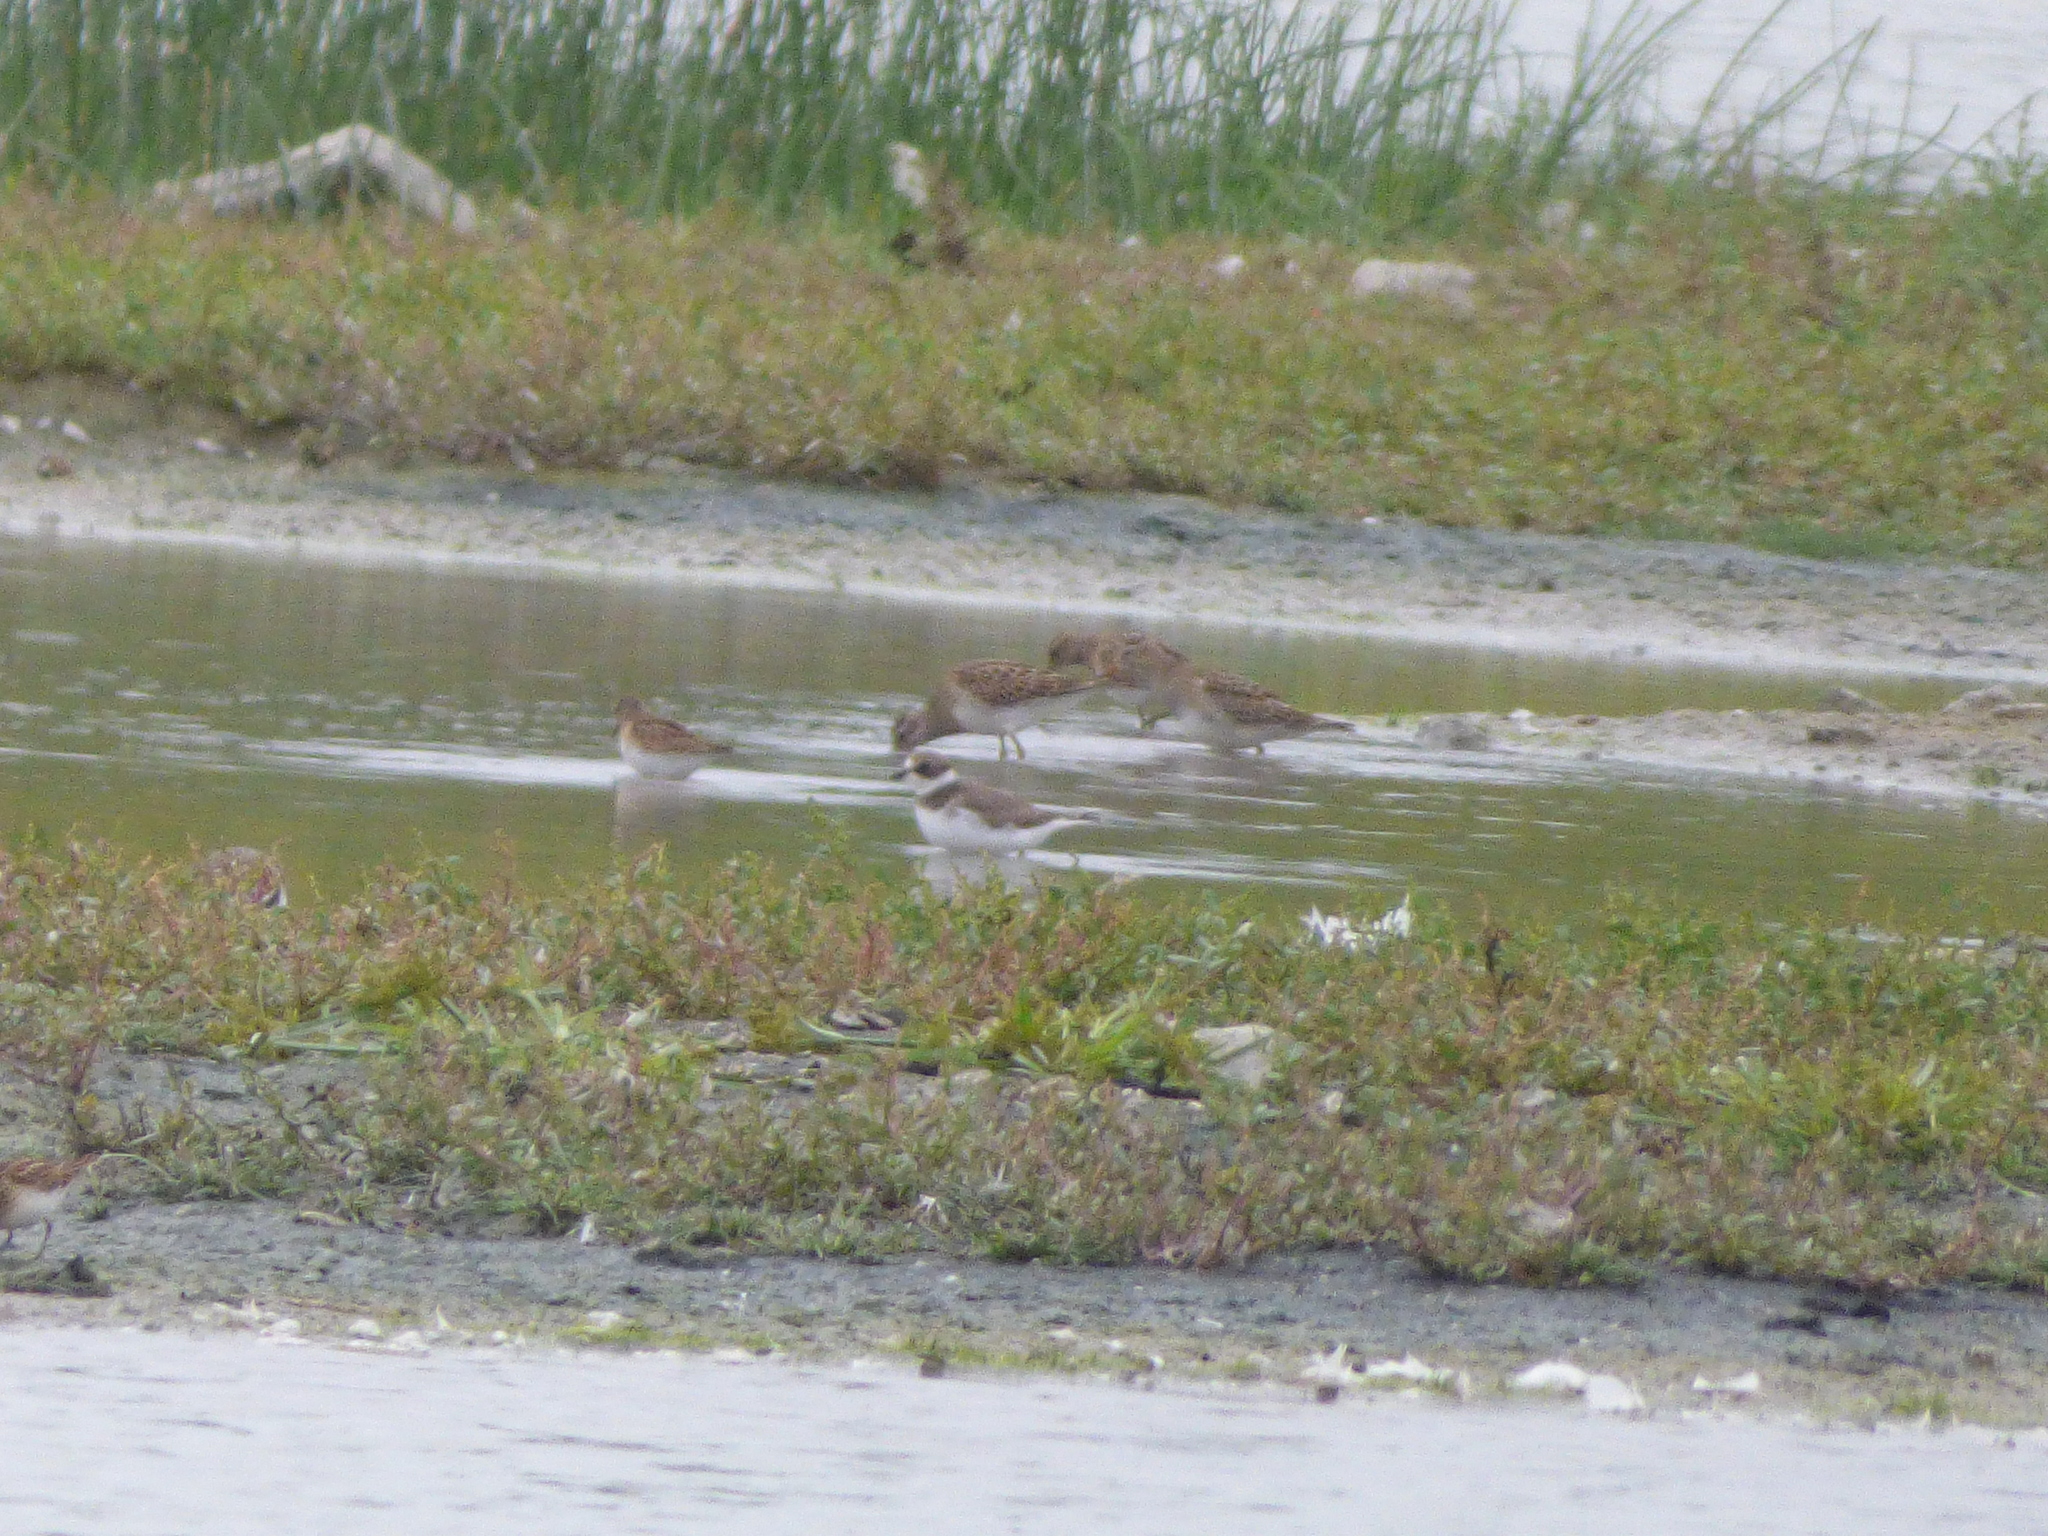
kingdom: Animalia
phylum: Chordata
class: Aves
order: Charadriiformes
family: Charadriidae
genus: Charadrius
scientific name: Charadrius semipalmatus
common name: Semipalmated plover
